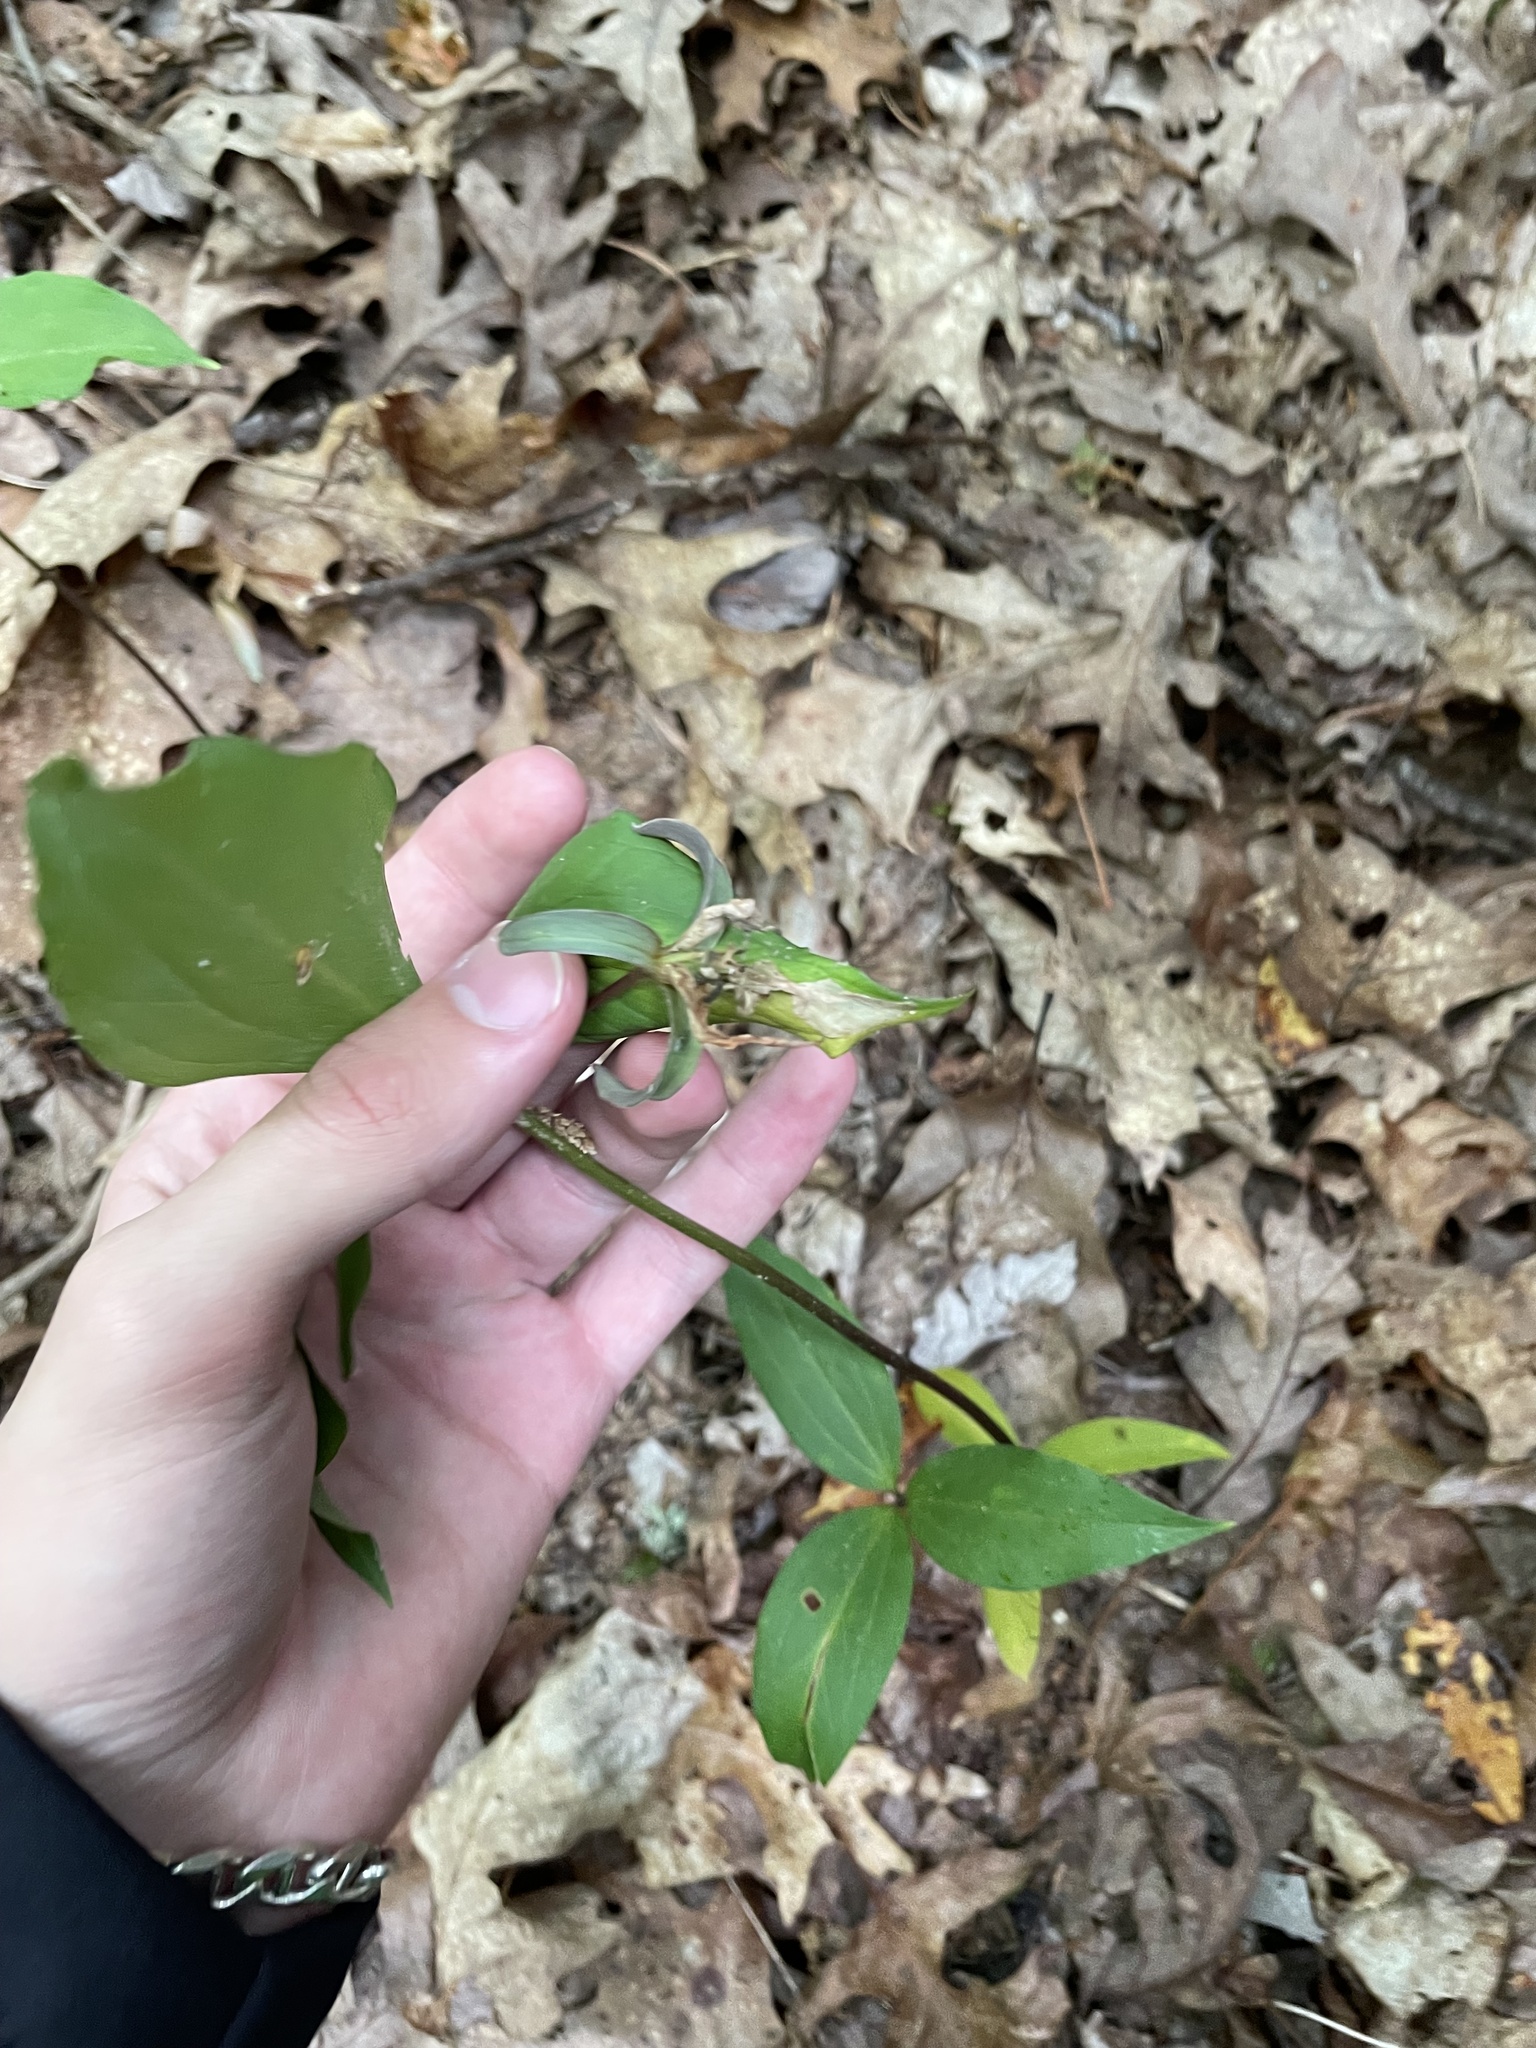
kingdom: Plantae
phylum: Tracheophyta
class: Liliopsida
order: Liliales
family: Melanthiaceae
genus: Trillium
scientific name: Trillium catesbaei
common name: Bashful trillium
